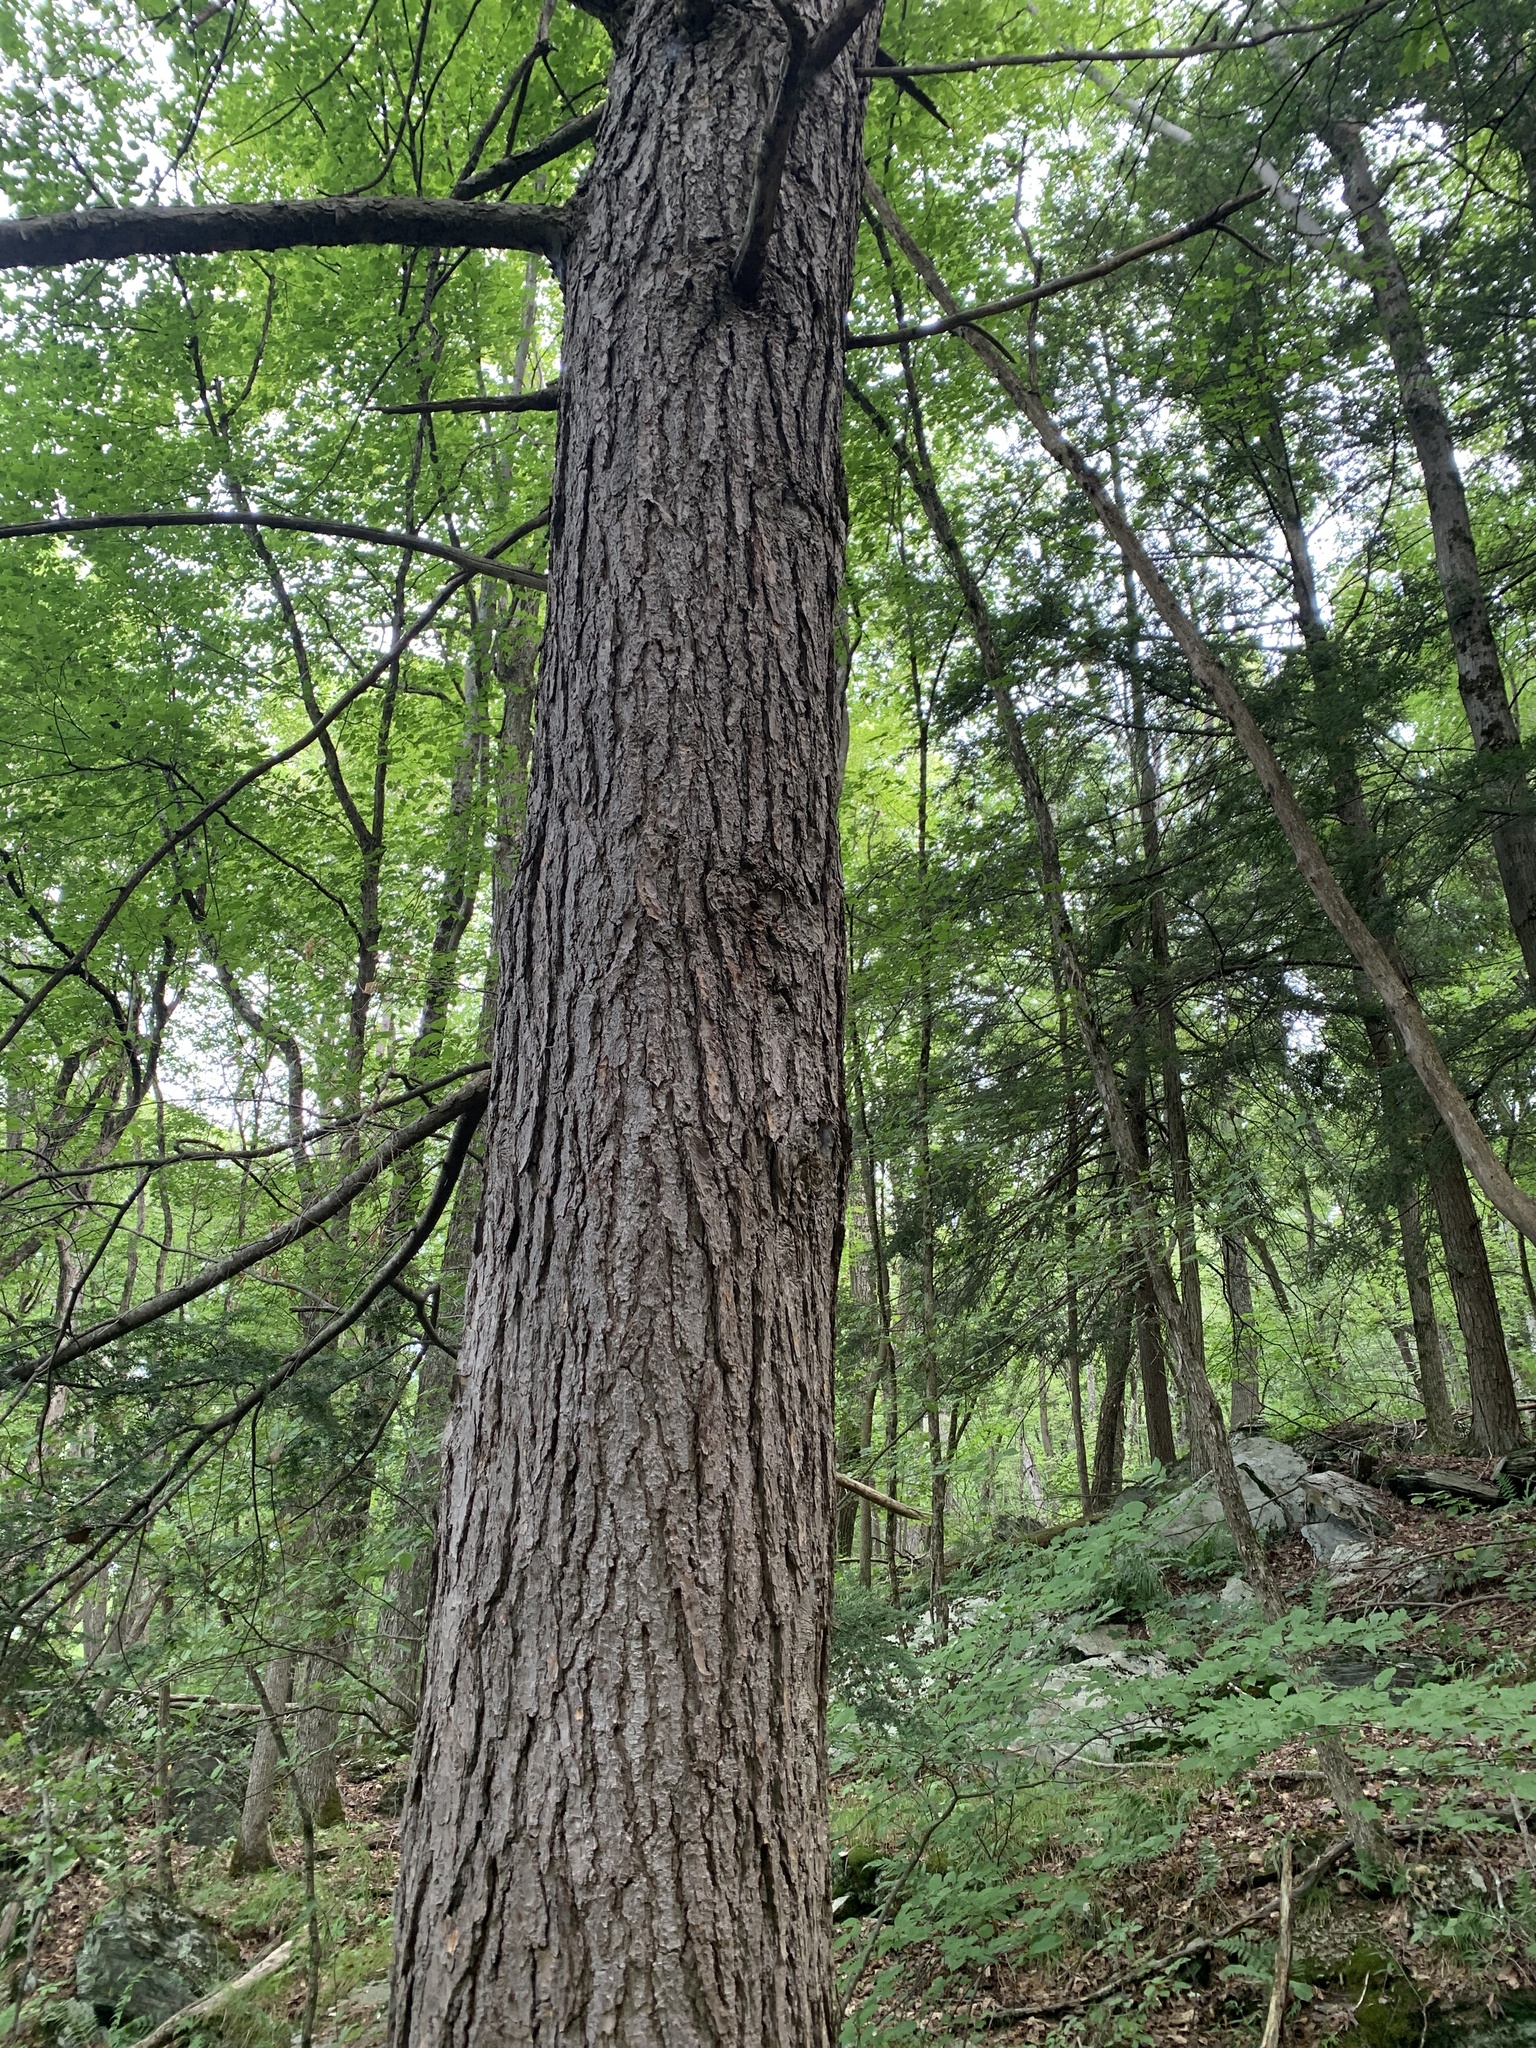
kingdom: Plantae
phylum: Tracheophyta
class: Pinopsida
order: Pinales
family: Pinaceae
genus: Tsuga
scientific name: Tsuga canadensis
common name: Eastern hemlock
